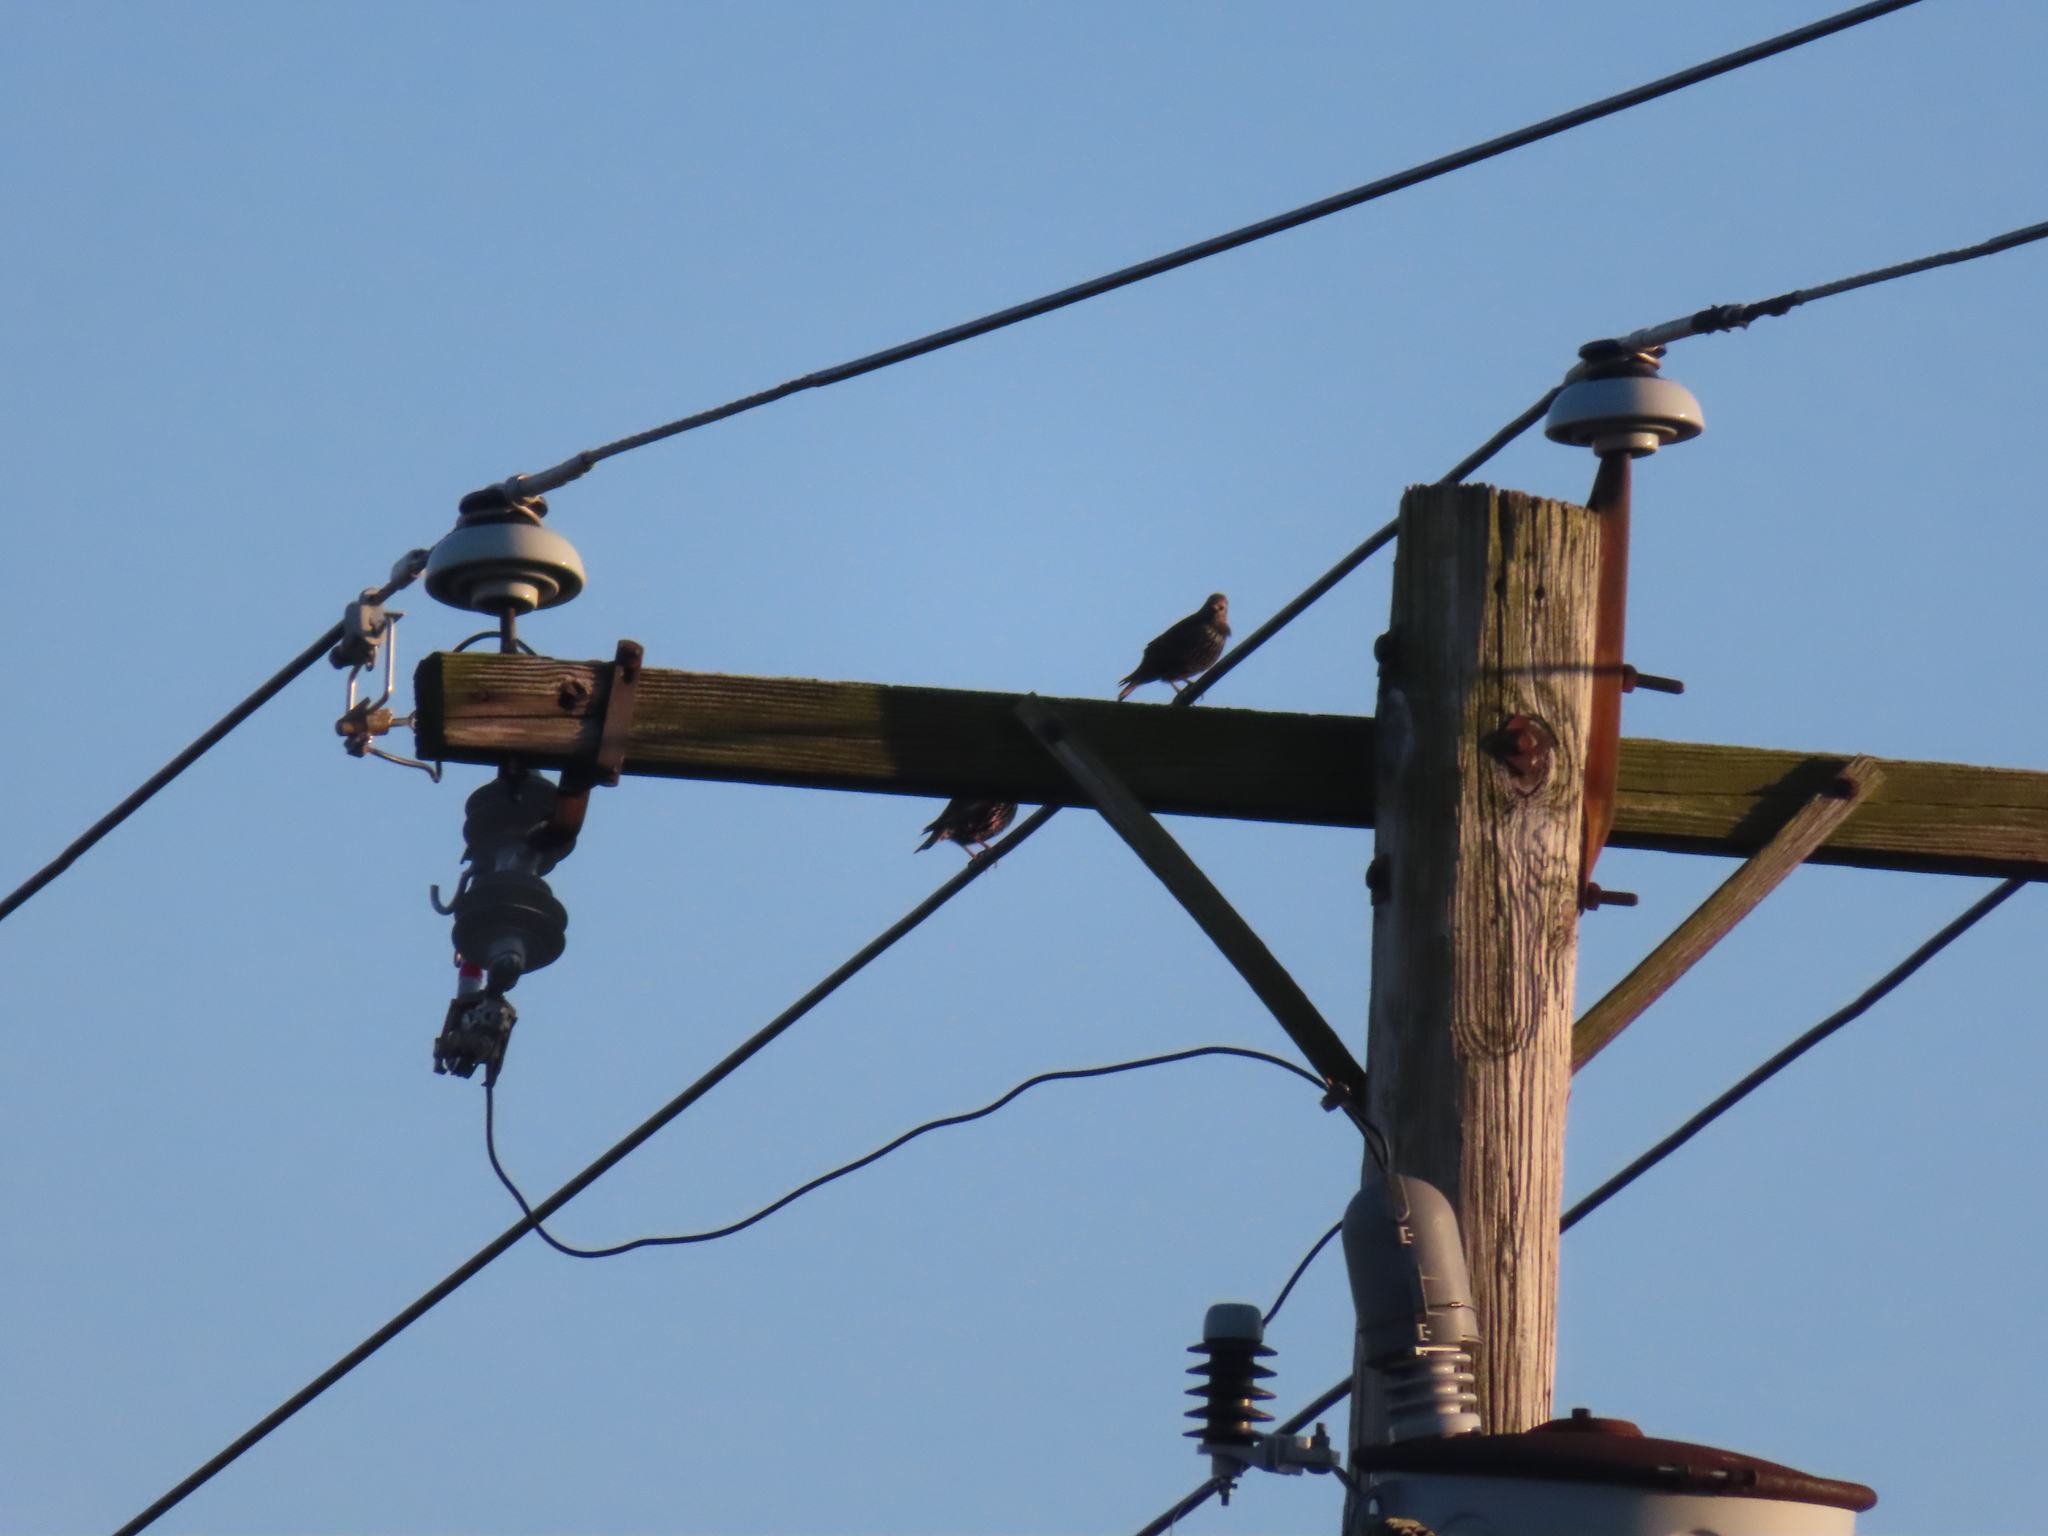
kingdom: Animalia
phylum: Chordata
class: Aves
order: Passeriformes
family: Sturnidae
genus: Sturnus
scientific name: Sturnus vulgaris
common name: Common starling
